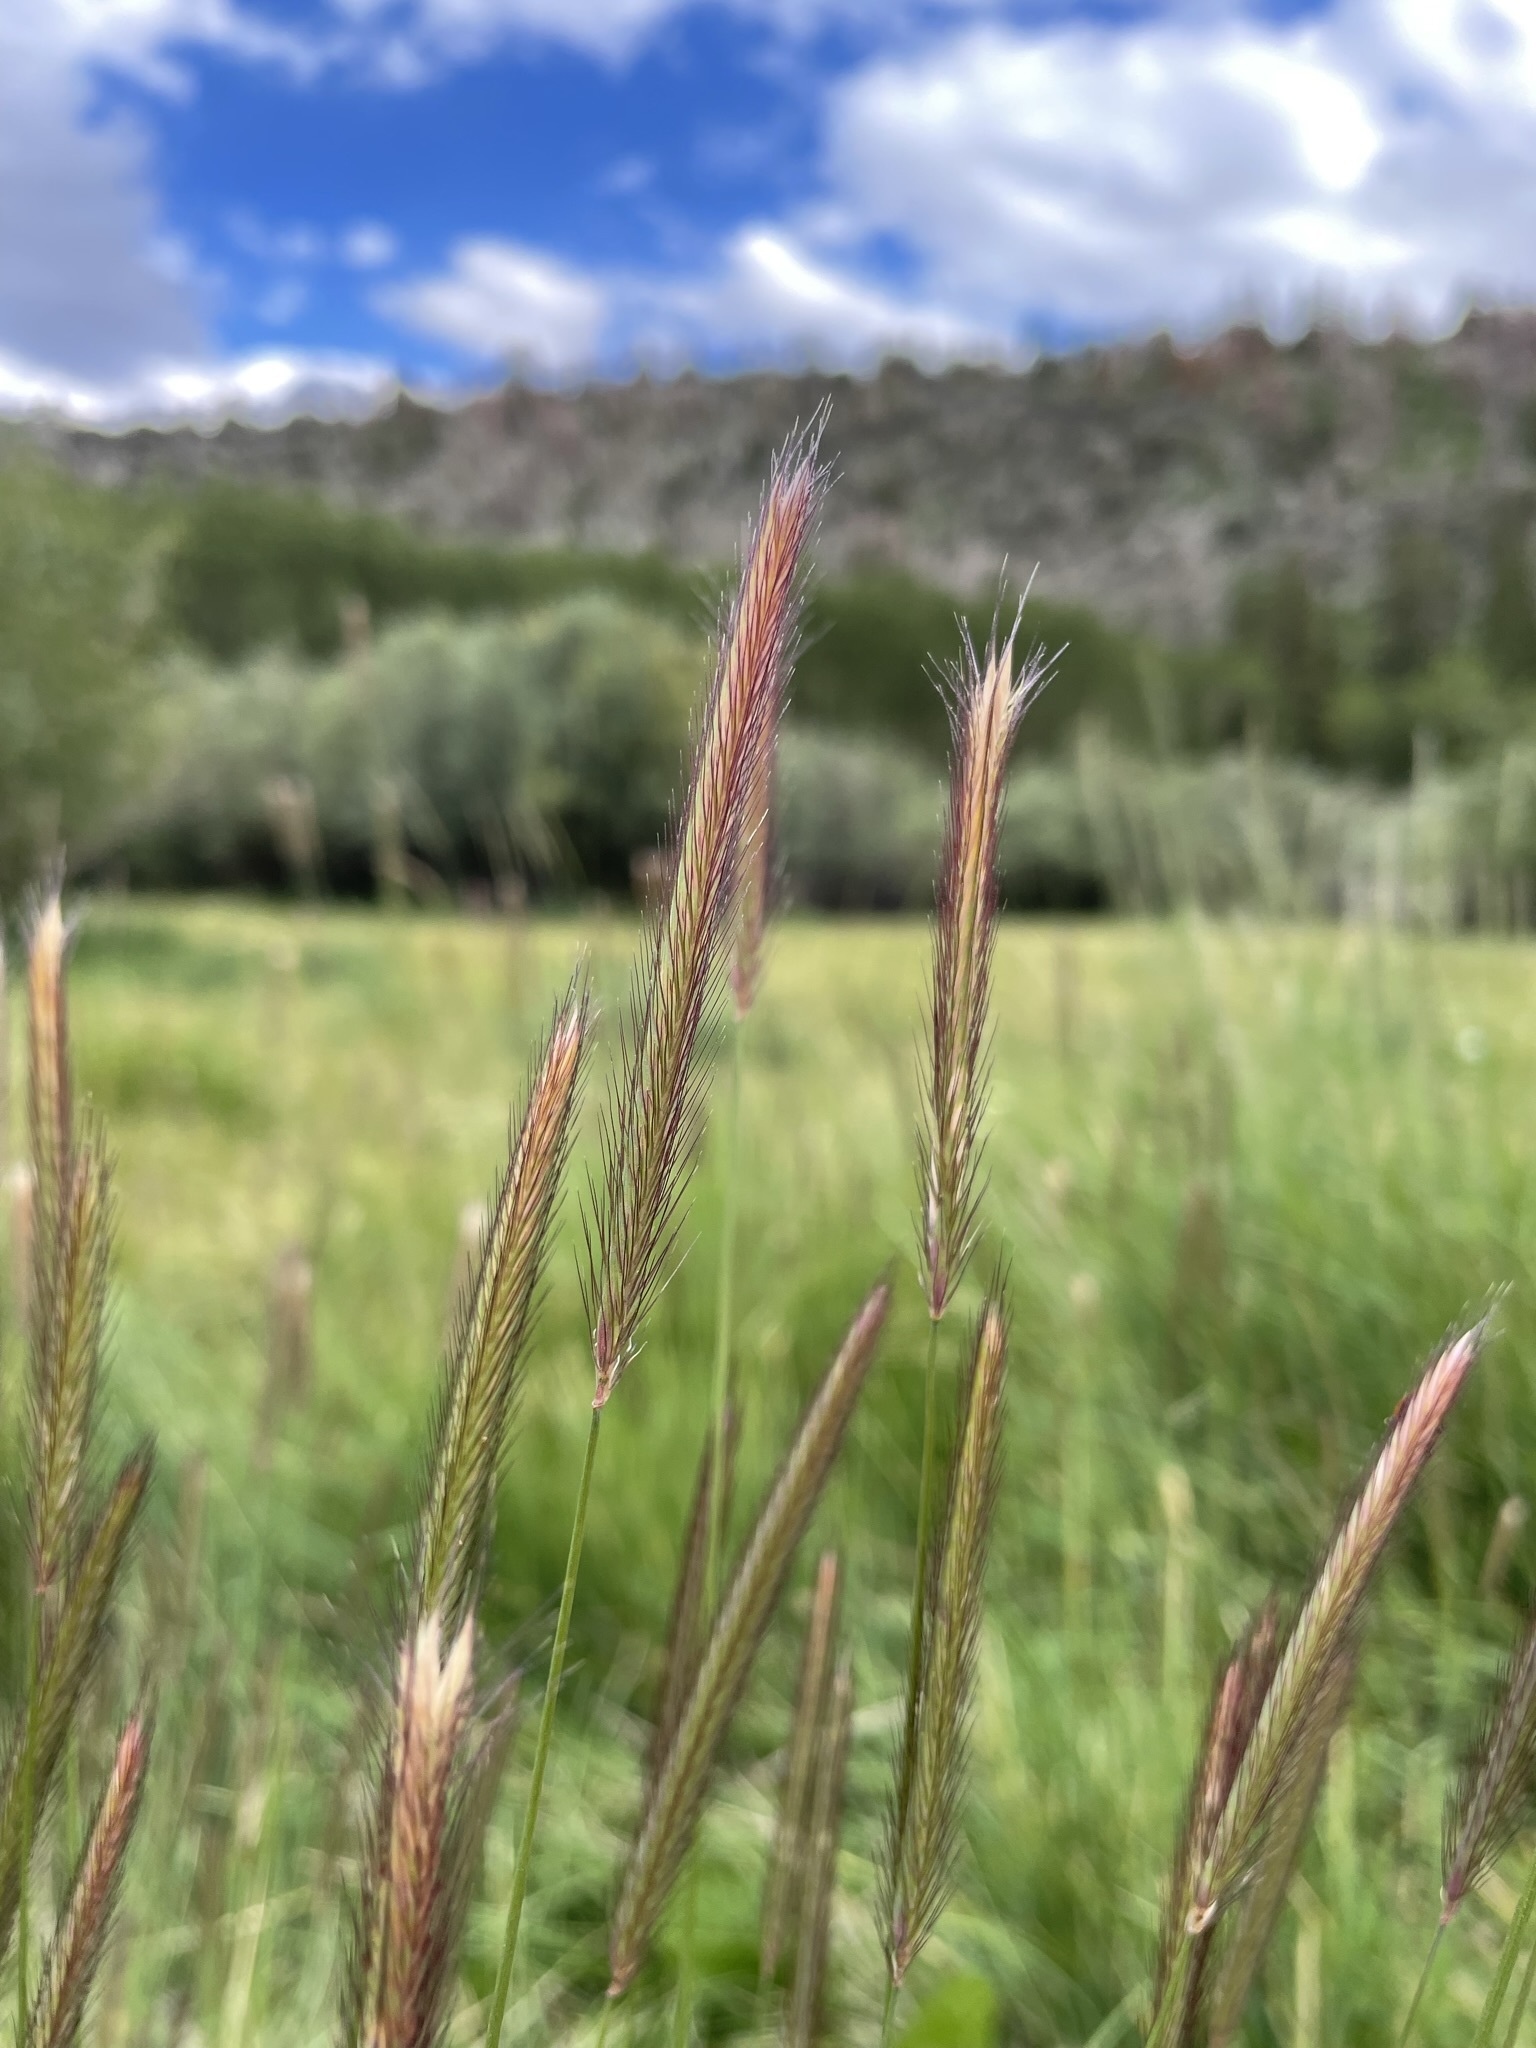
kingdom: Plantae
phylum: Tracheophyta
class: Liliopsida
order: Poales
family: Poaceae
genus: Hordeum
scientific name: Hordeum brachyantherum
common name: Meadow barley
